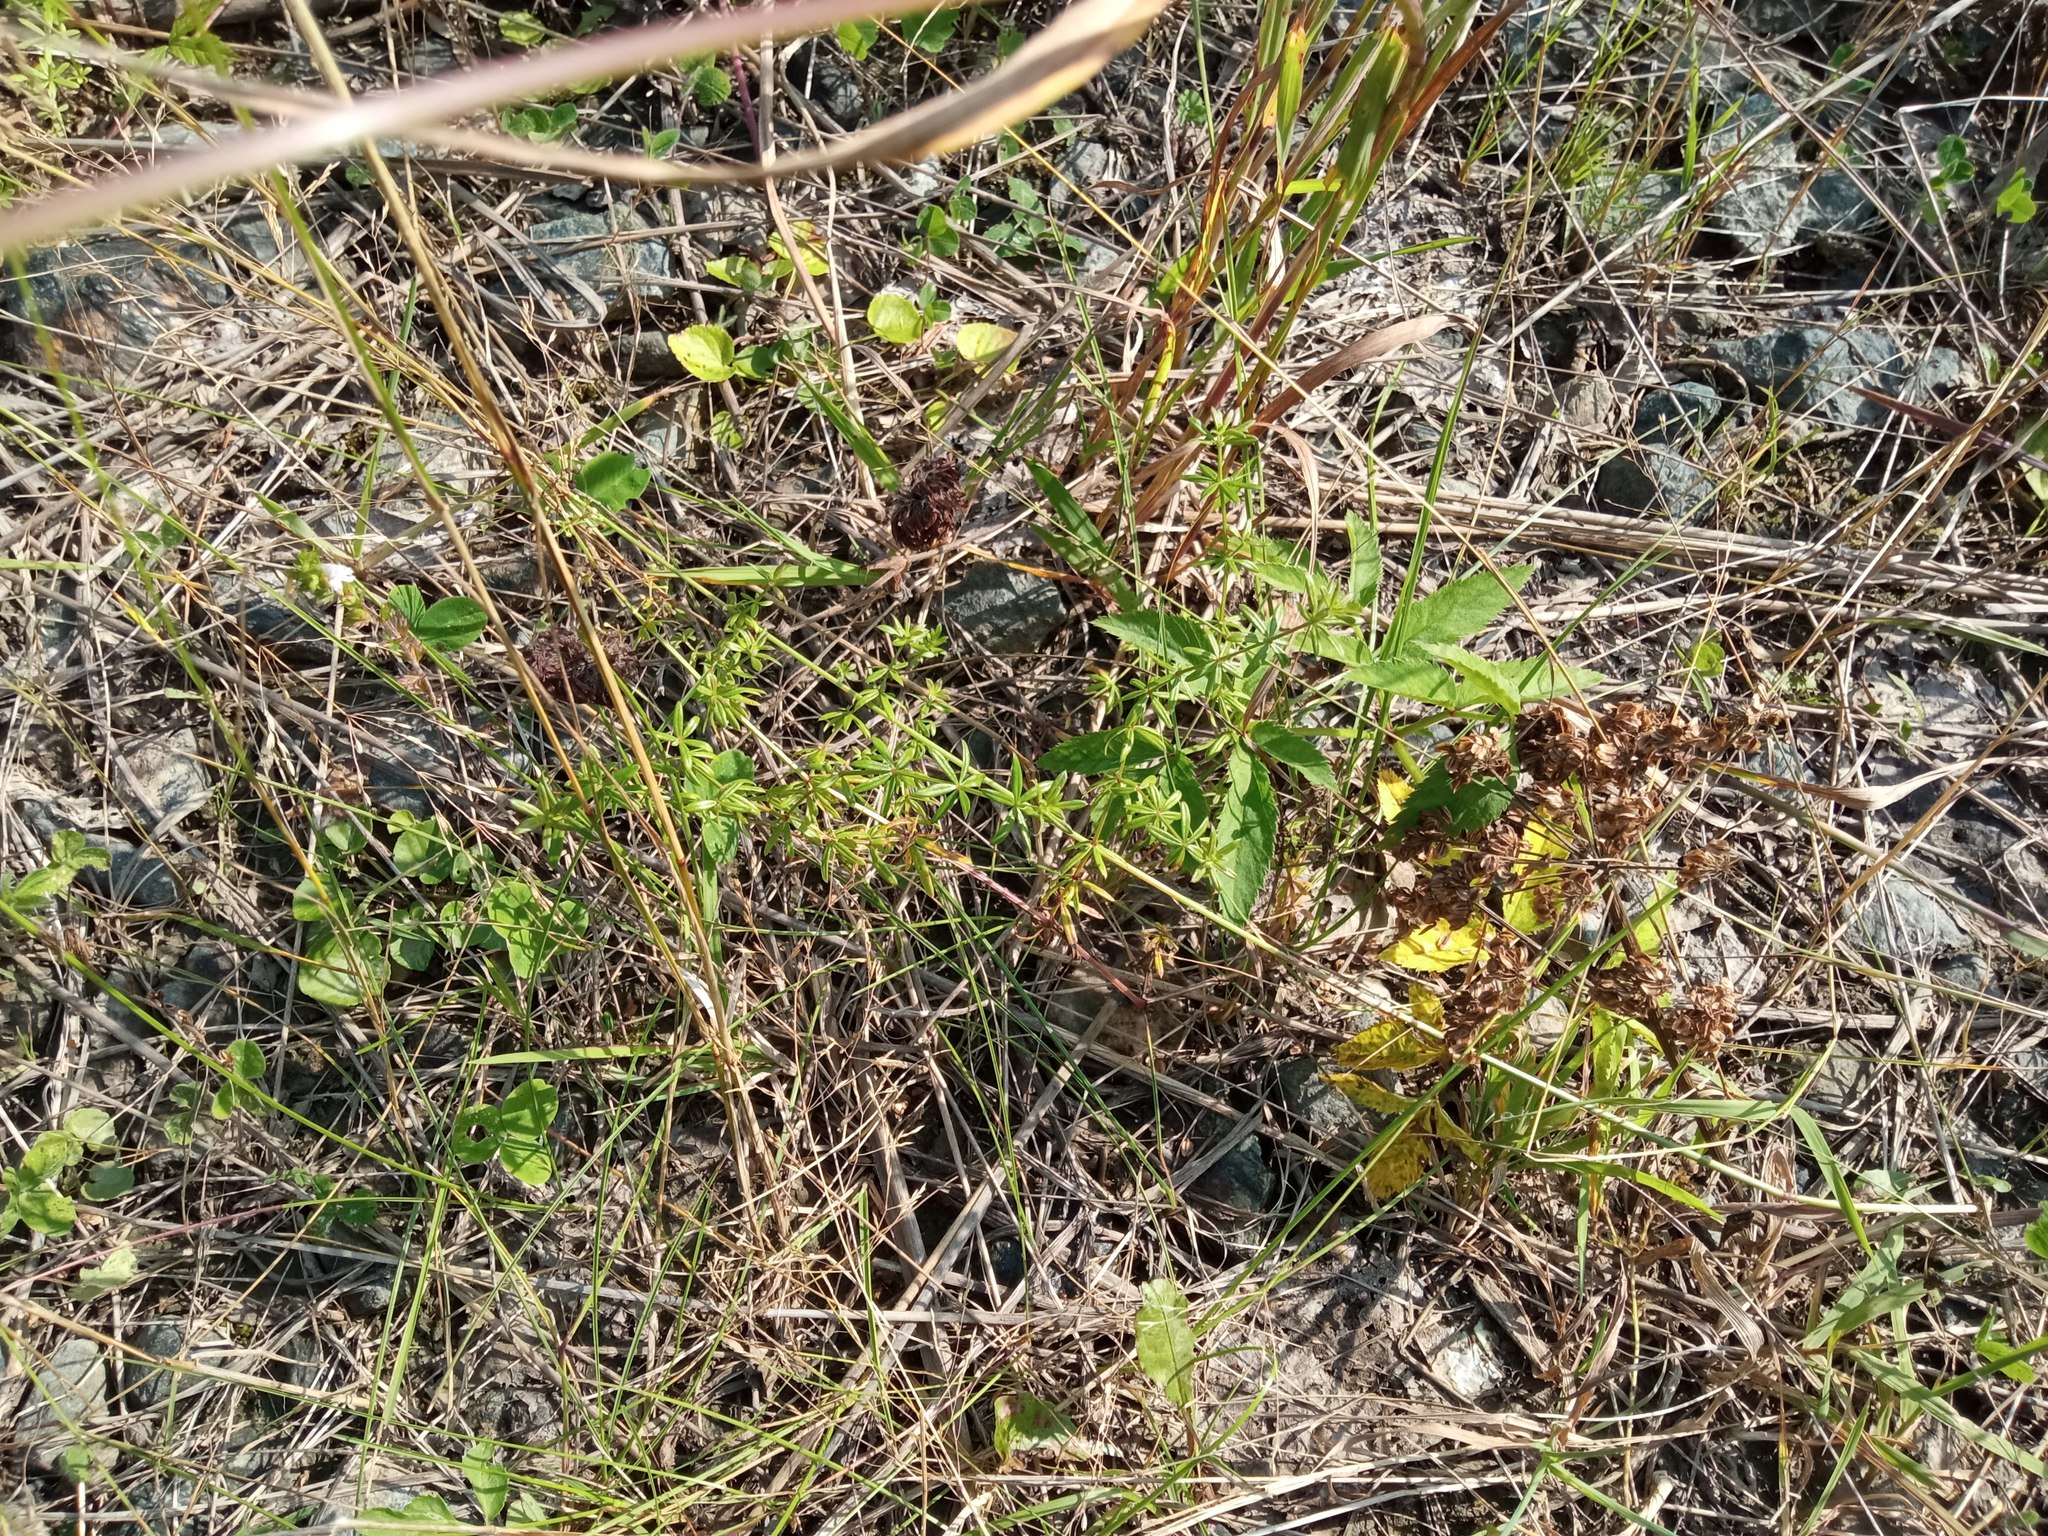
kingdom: Plantae
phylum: Tracheophyta
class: Magnoliopsida
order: Gentianales
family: Rubiaceae
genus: Galium
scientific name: Galium mollugo
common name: Hedge bedstraw
